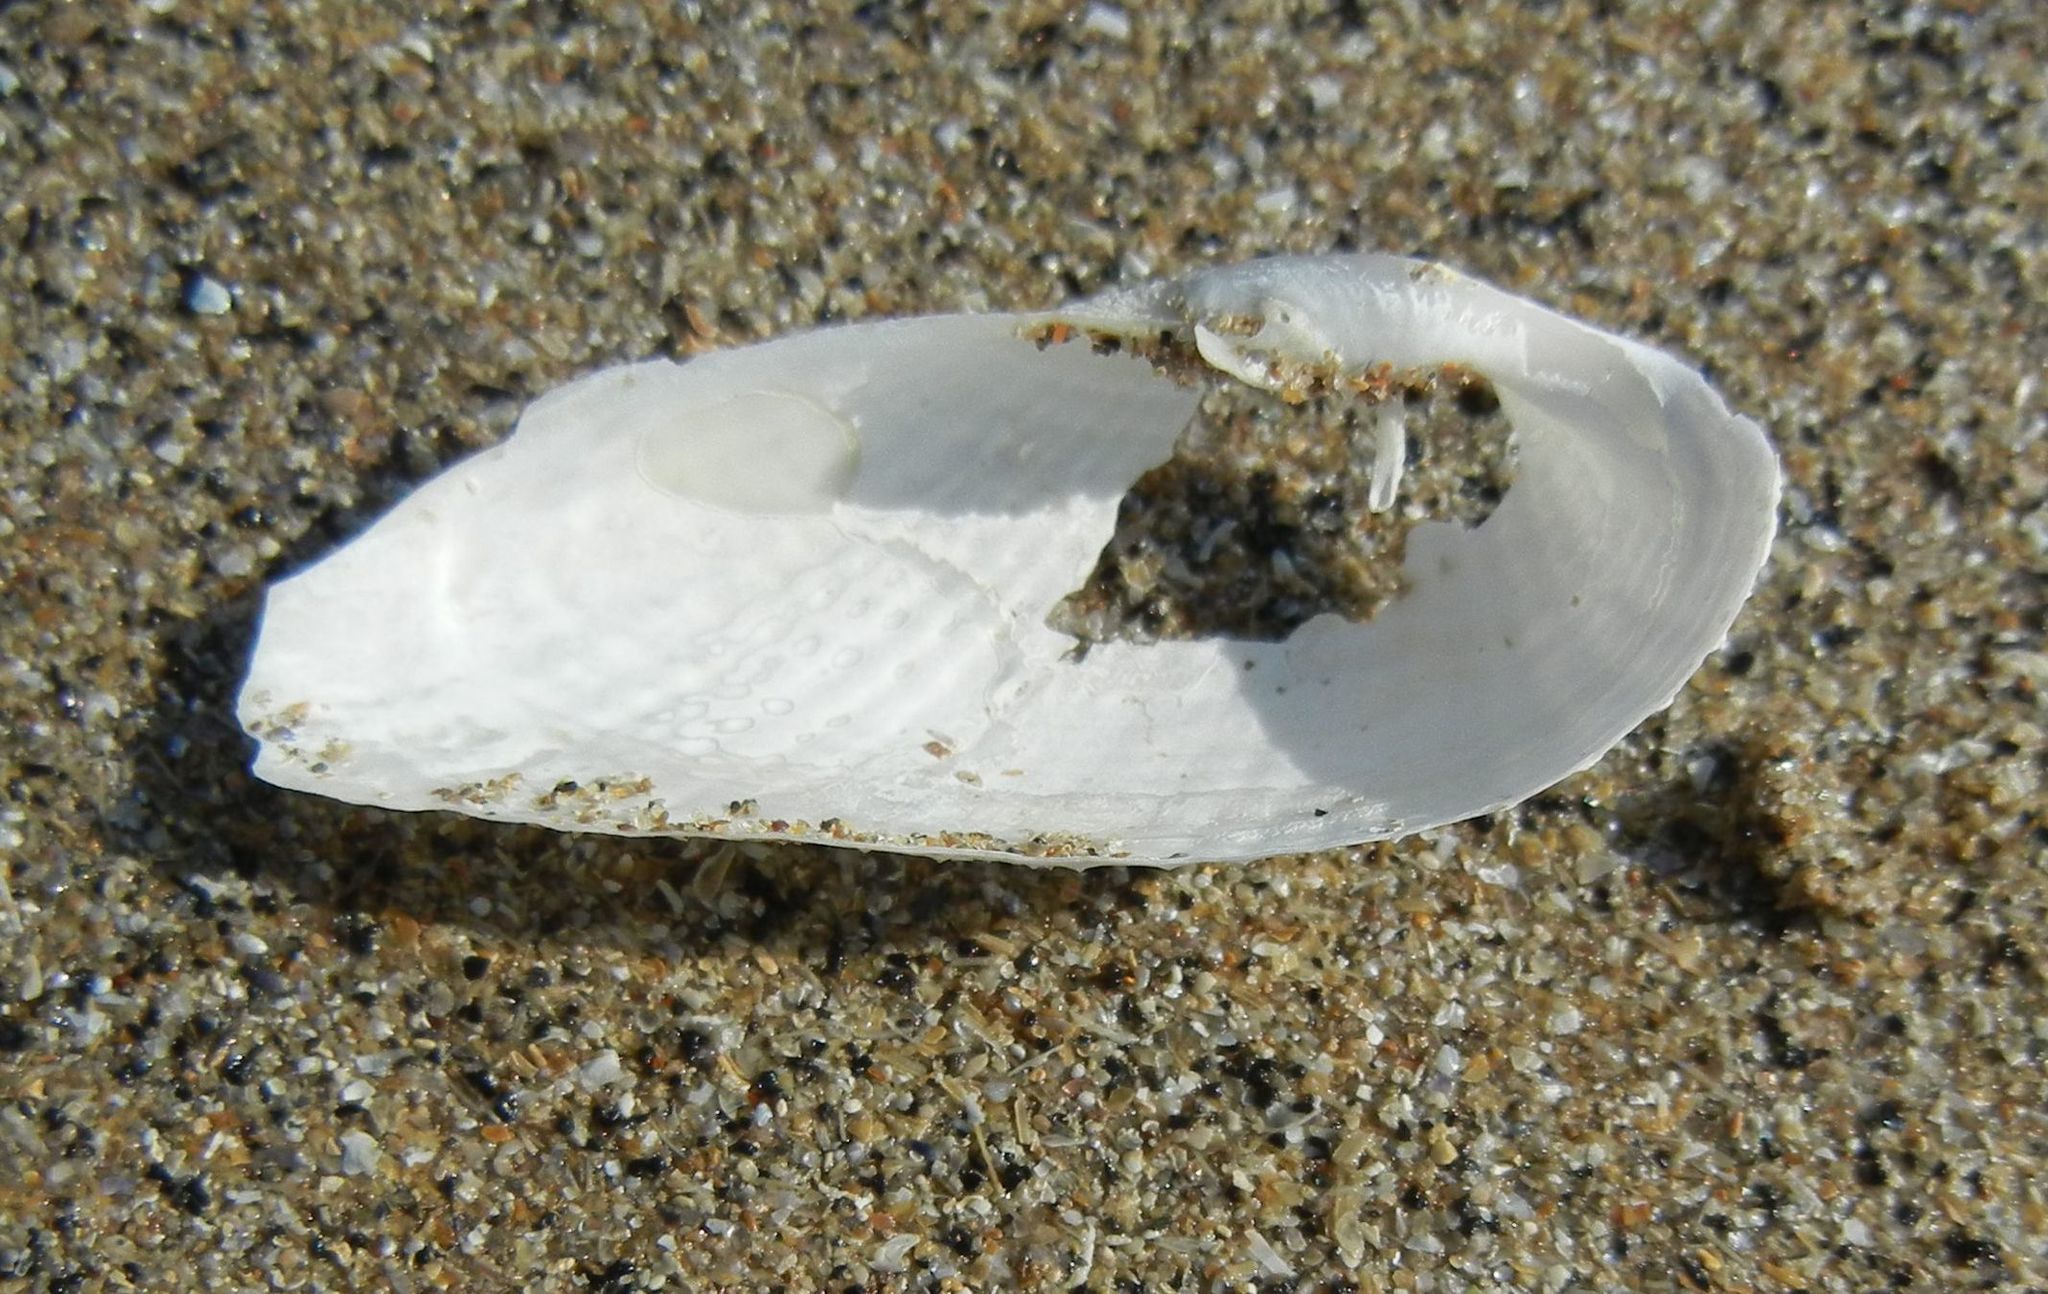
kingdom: Animalia
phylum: Mollusca
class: Bivalvia
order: Myida
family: Pholadidae
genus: Barnea
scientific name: Barnea candida
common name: White piddock
